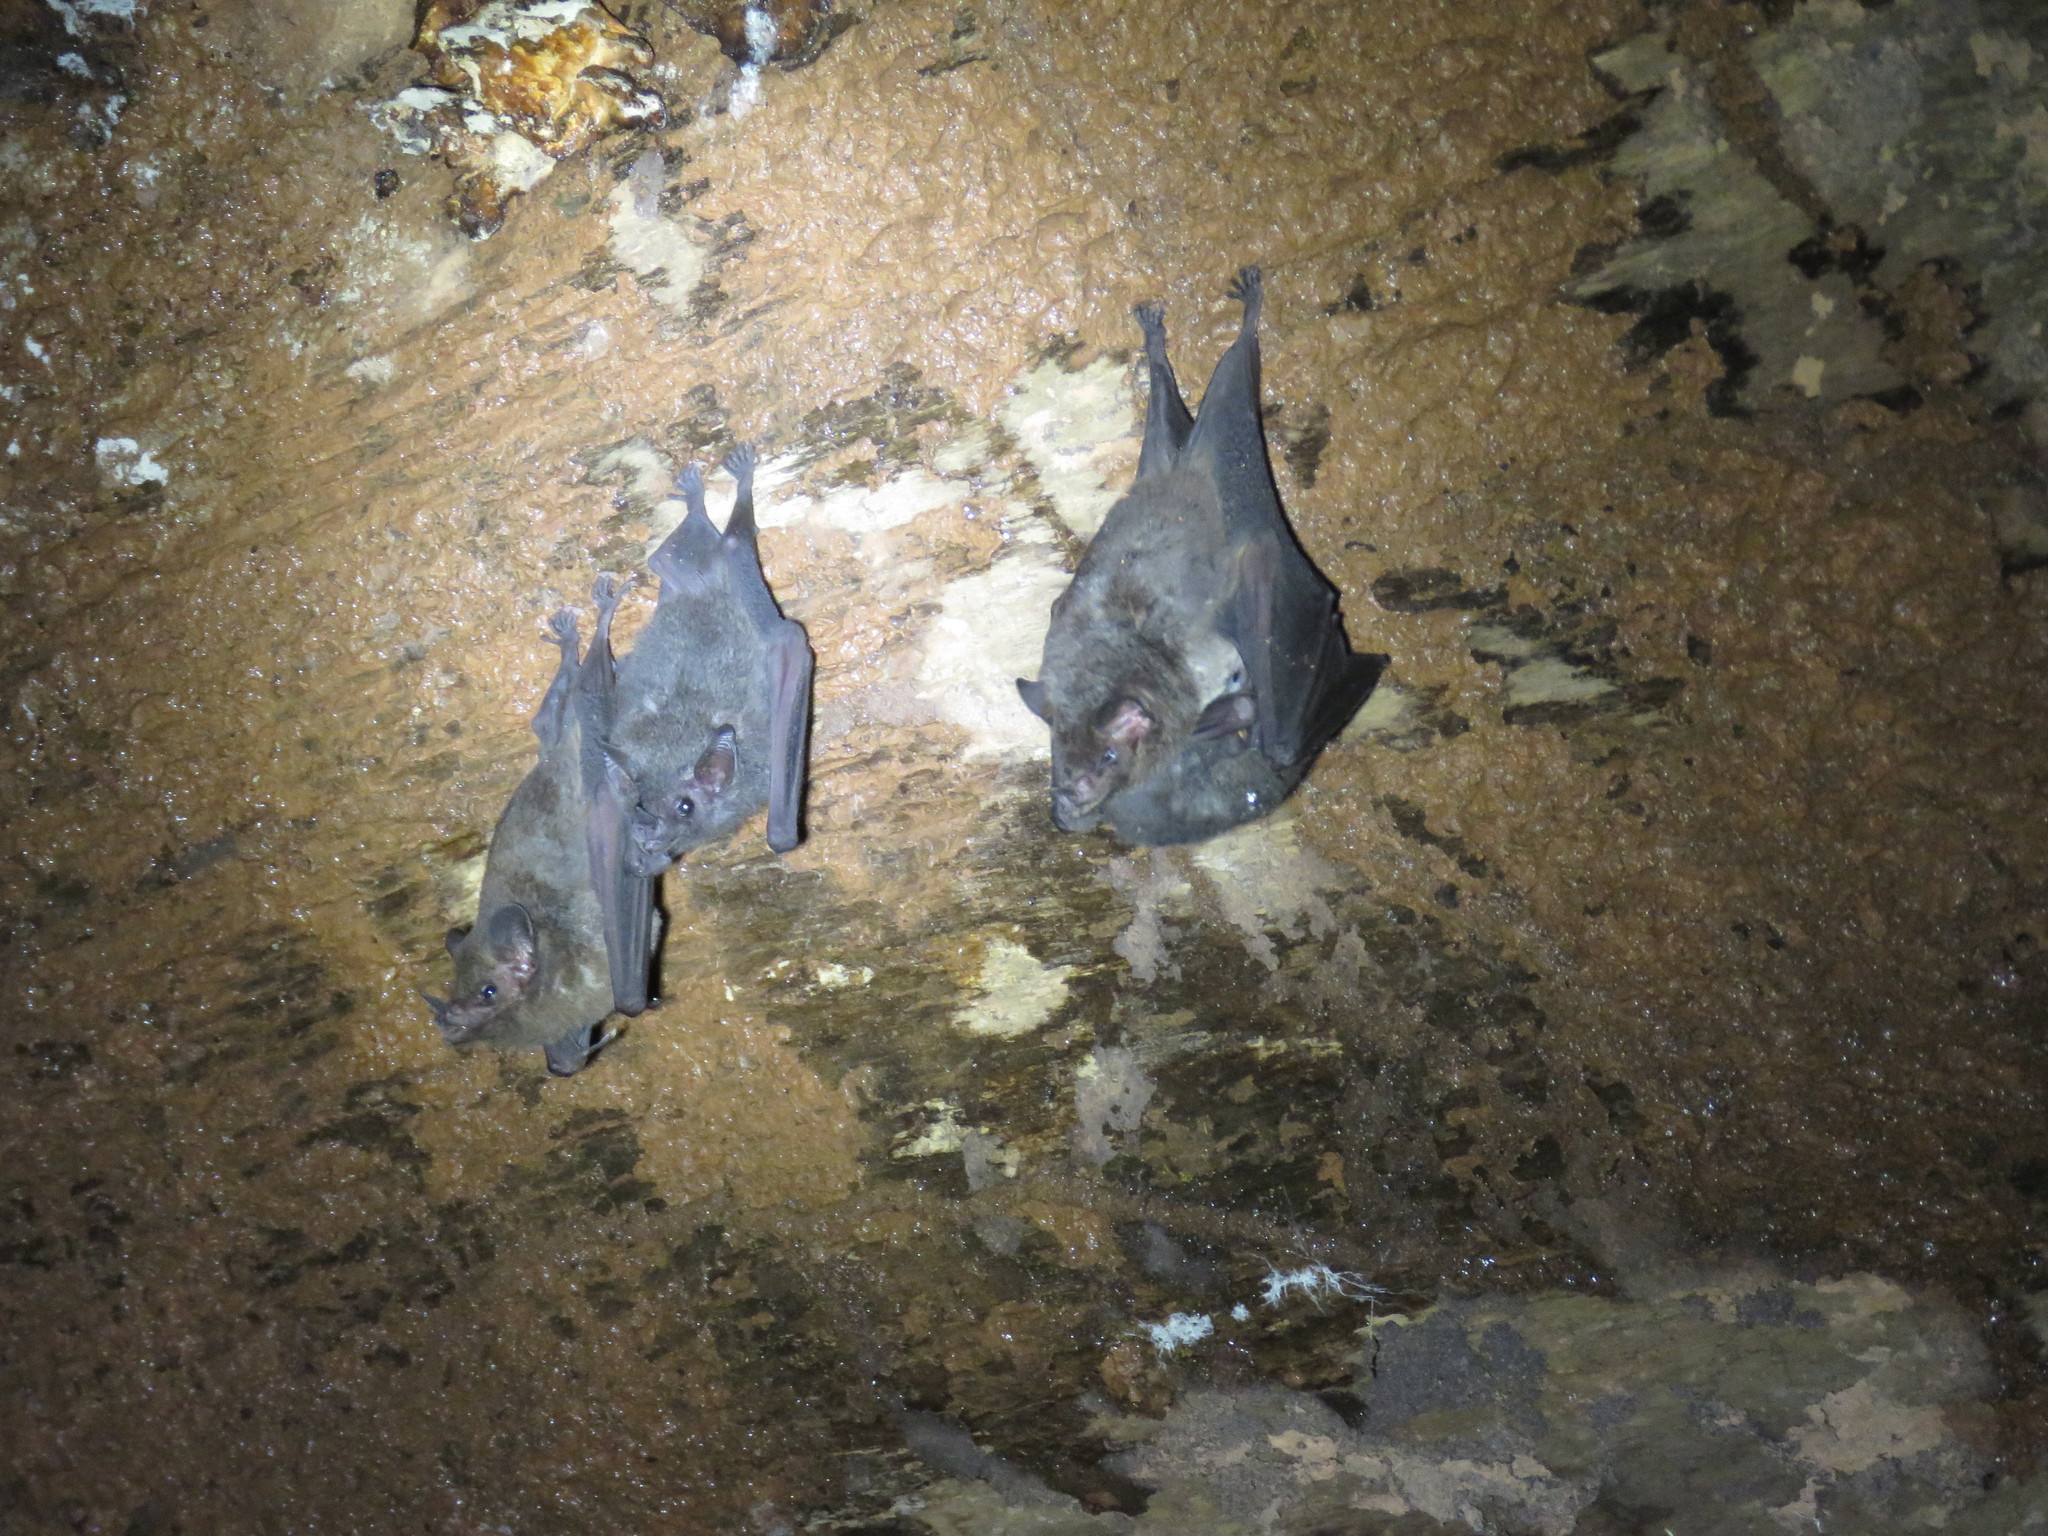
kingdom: Animalia
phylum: Chordata
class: Mammalia
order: Chiroptera
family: Phyllostomidae
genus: Glossophaga
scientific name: Glossophaga soricina
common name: Pallas's long-tongued bat
